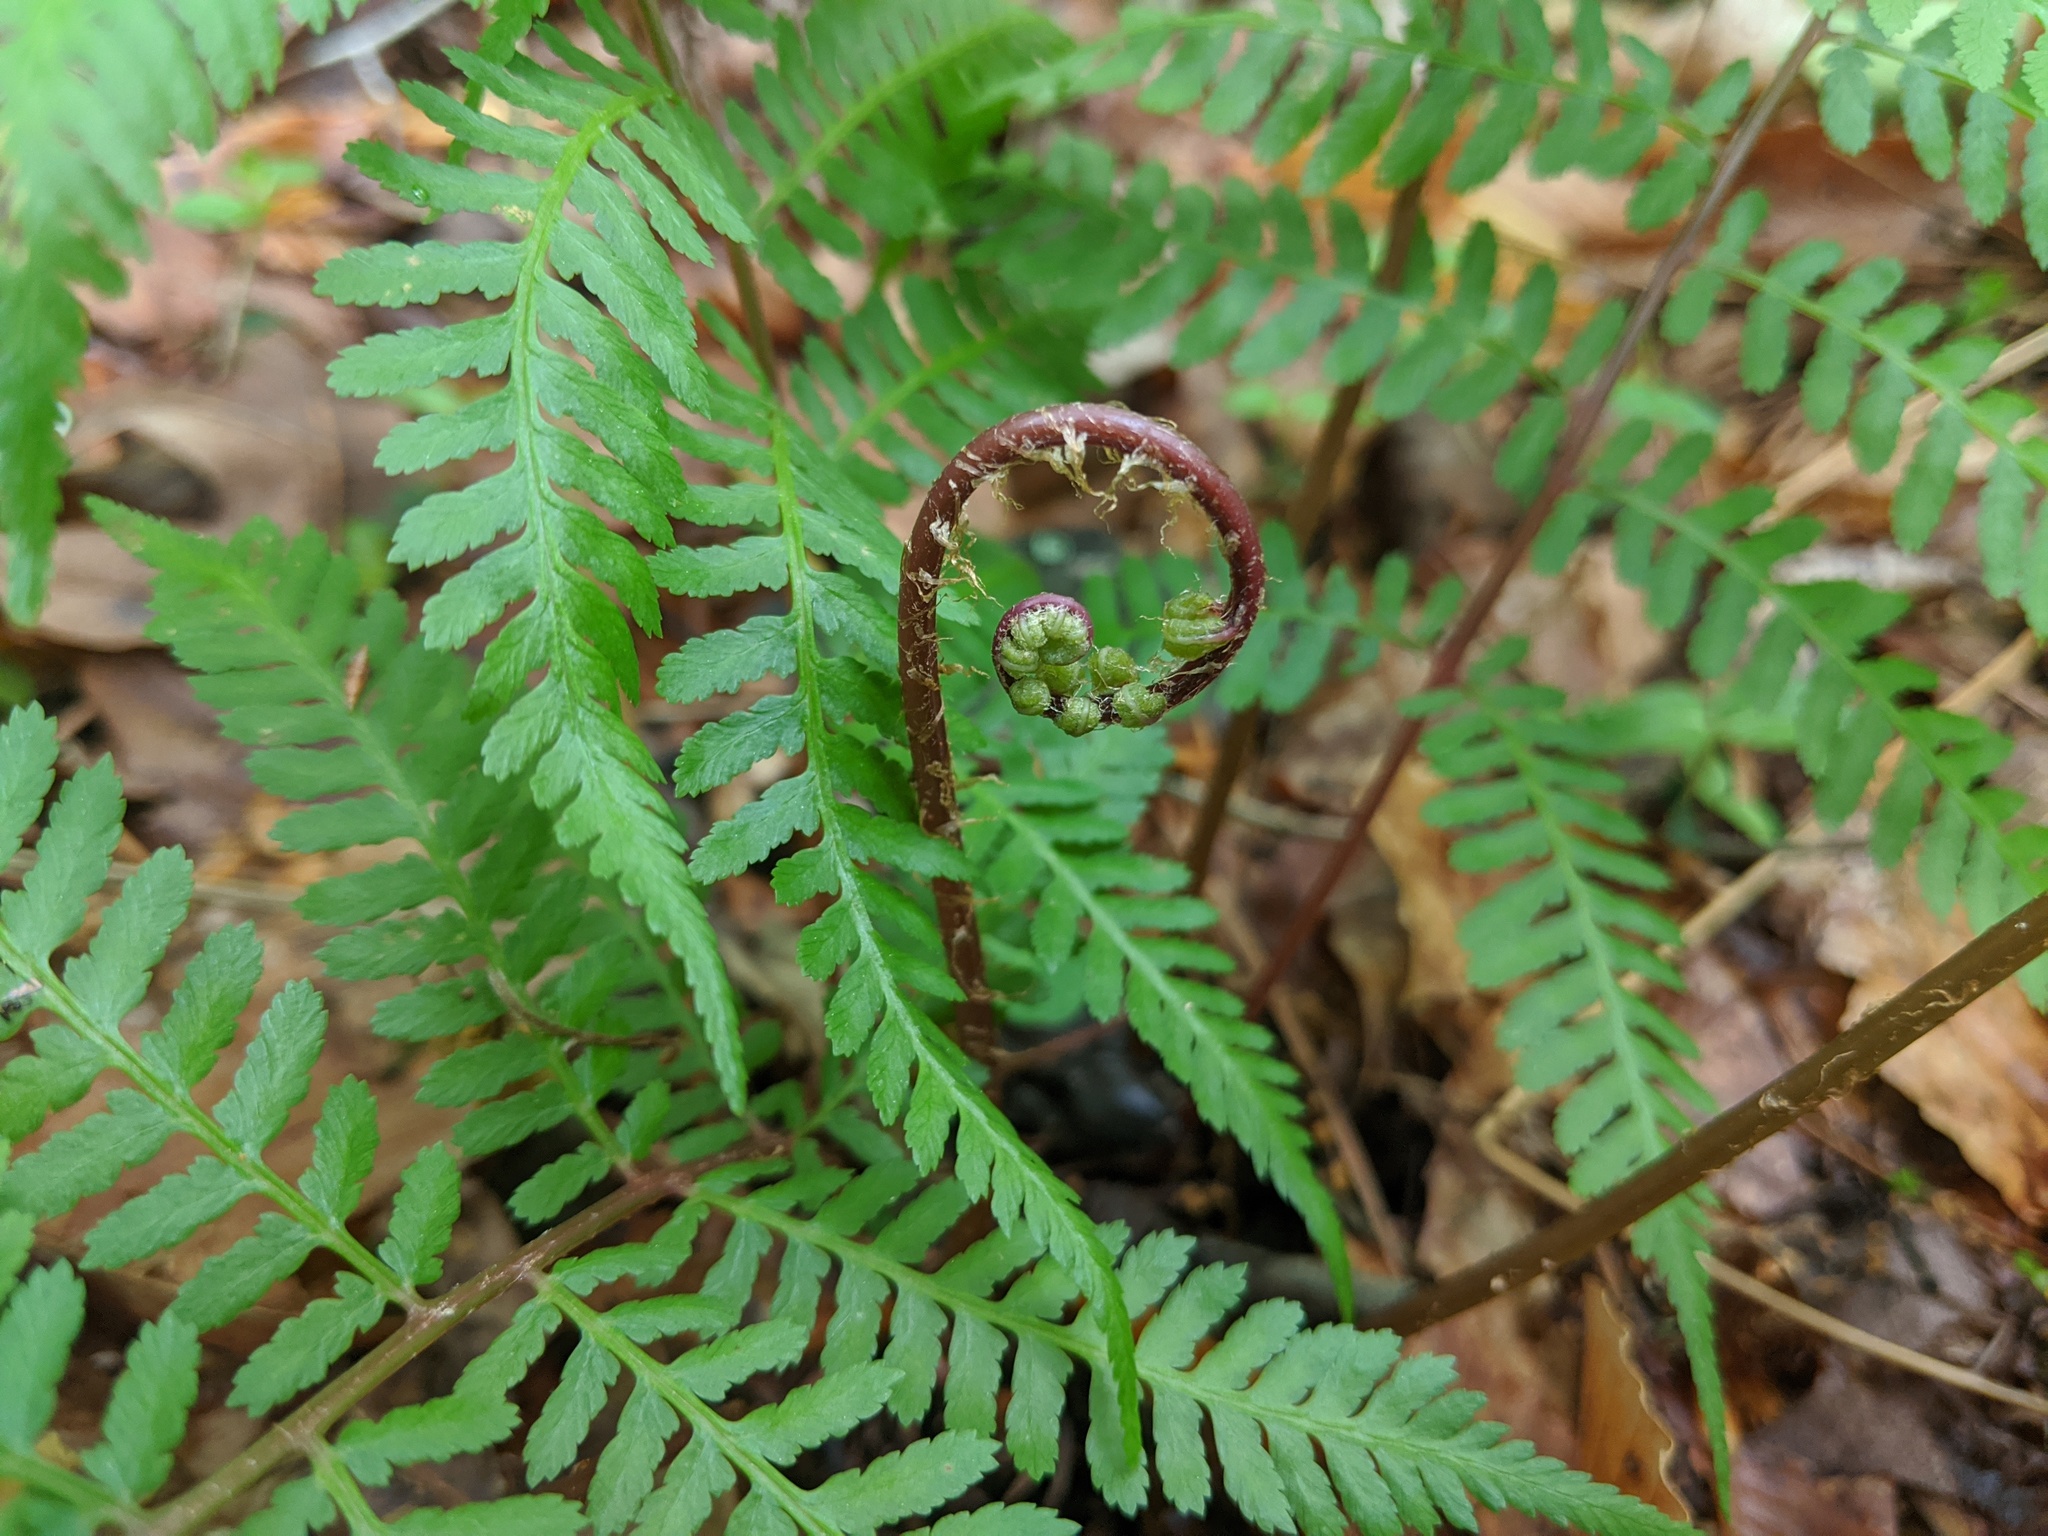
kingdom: Plantae
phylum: Tracheophyta
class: Polypodiopsida
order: Polypodiales
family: Athyriaceae
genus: Athyrium
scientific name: Athyrium asplenioides
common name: Southern lady fern
